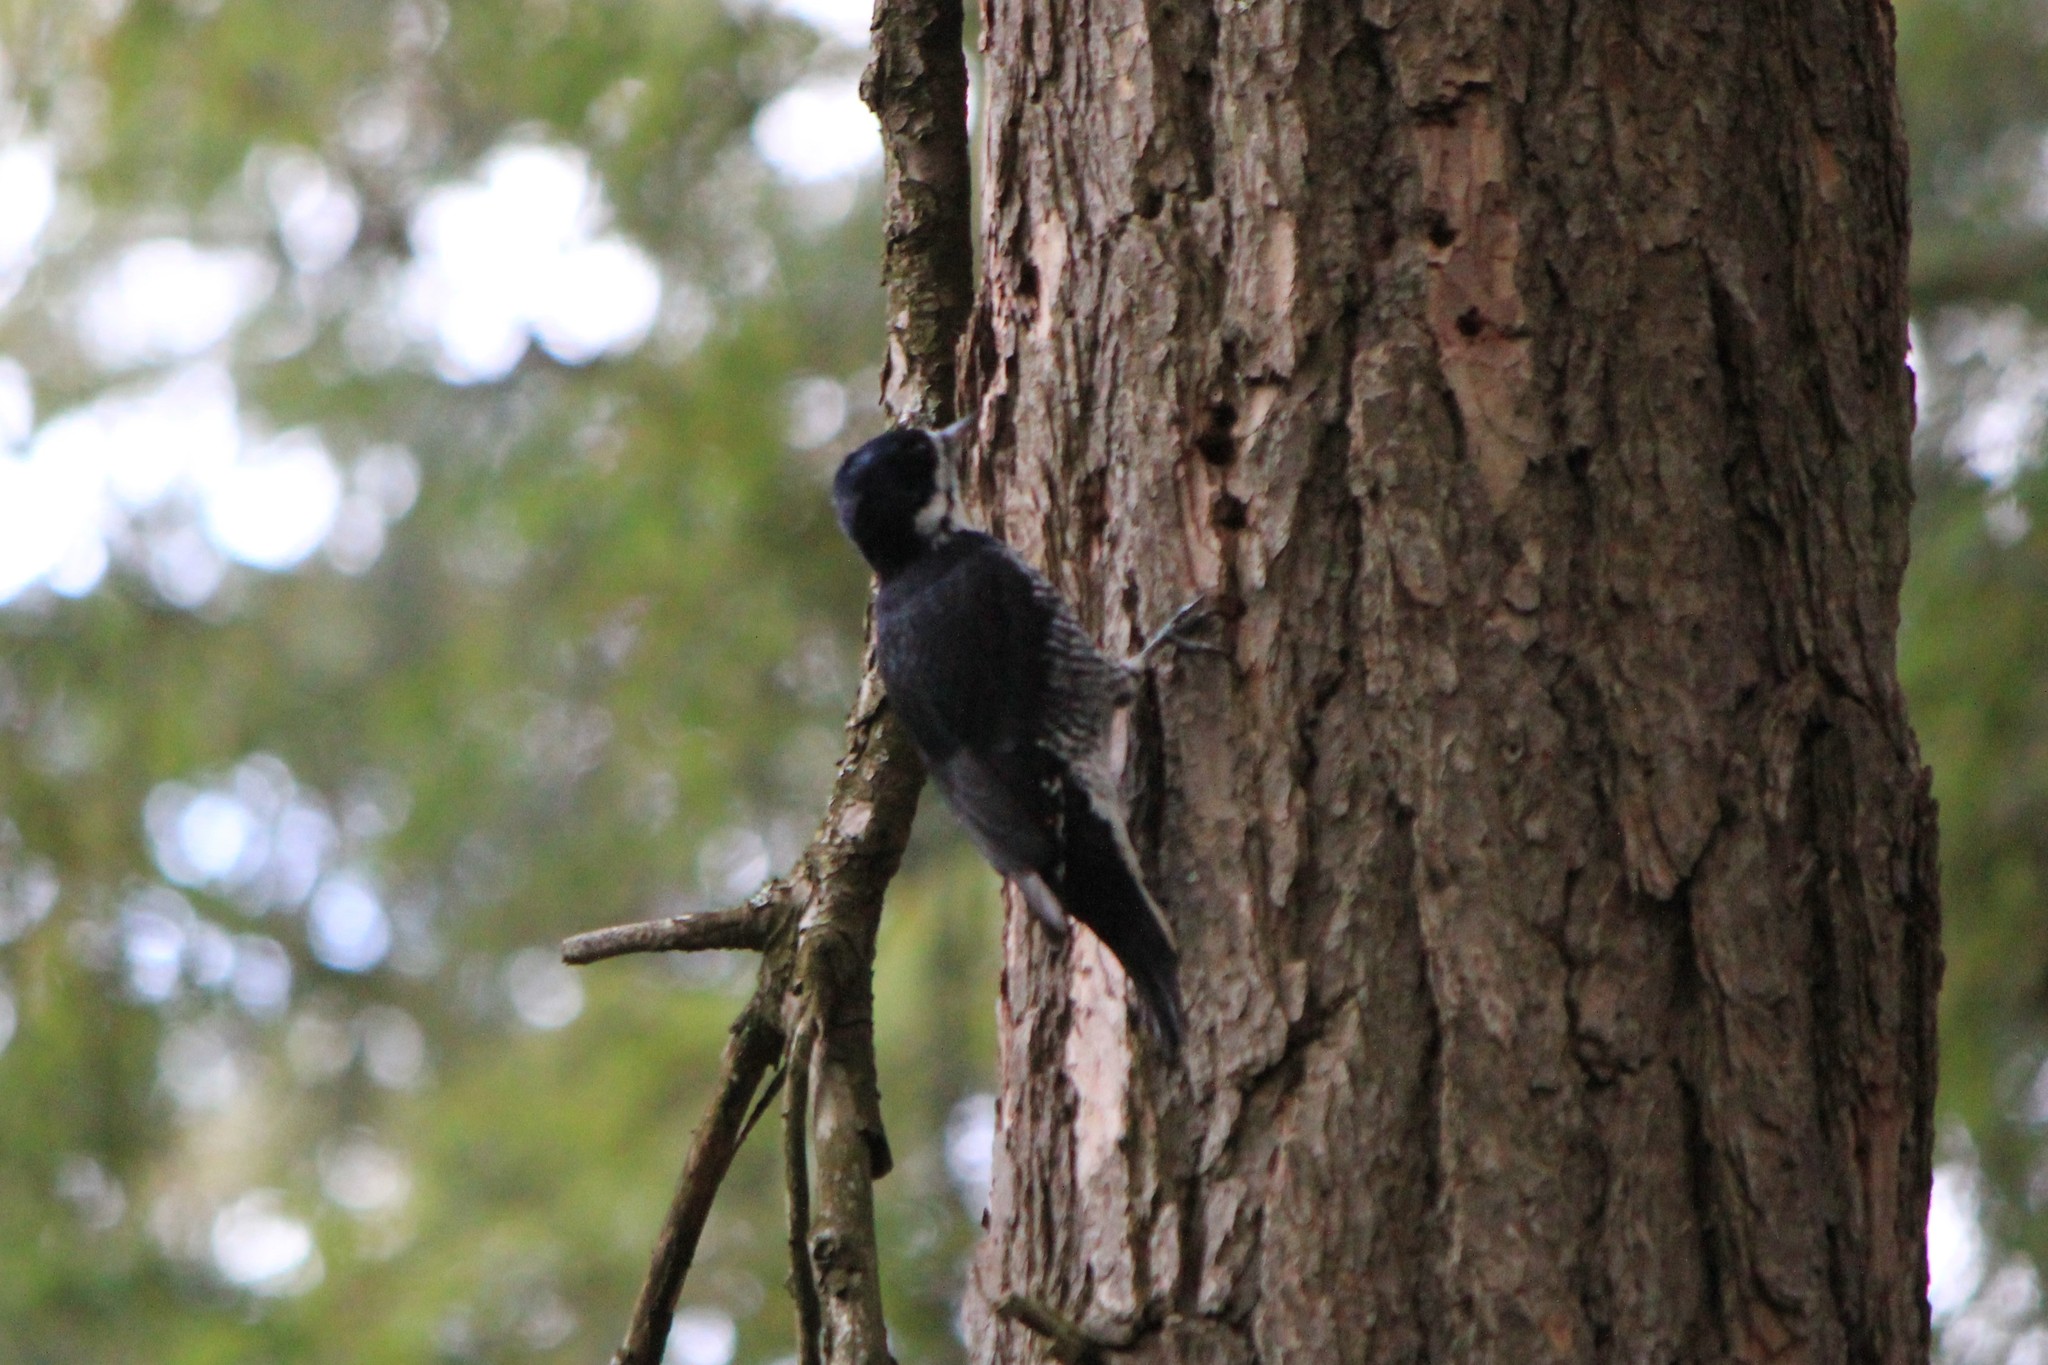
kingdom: Animalia
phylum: Chordata
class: Aves
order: Piciformes
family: Picidae
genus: Picoides
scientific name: Picoides arcticus
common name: Black-backed woodpecker
